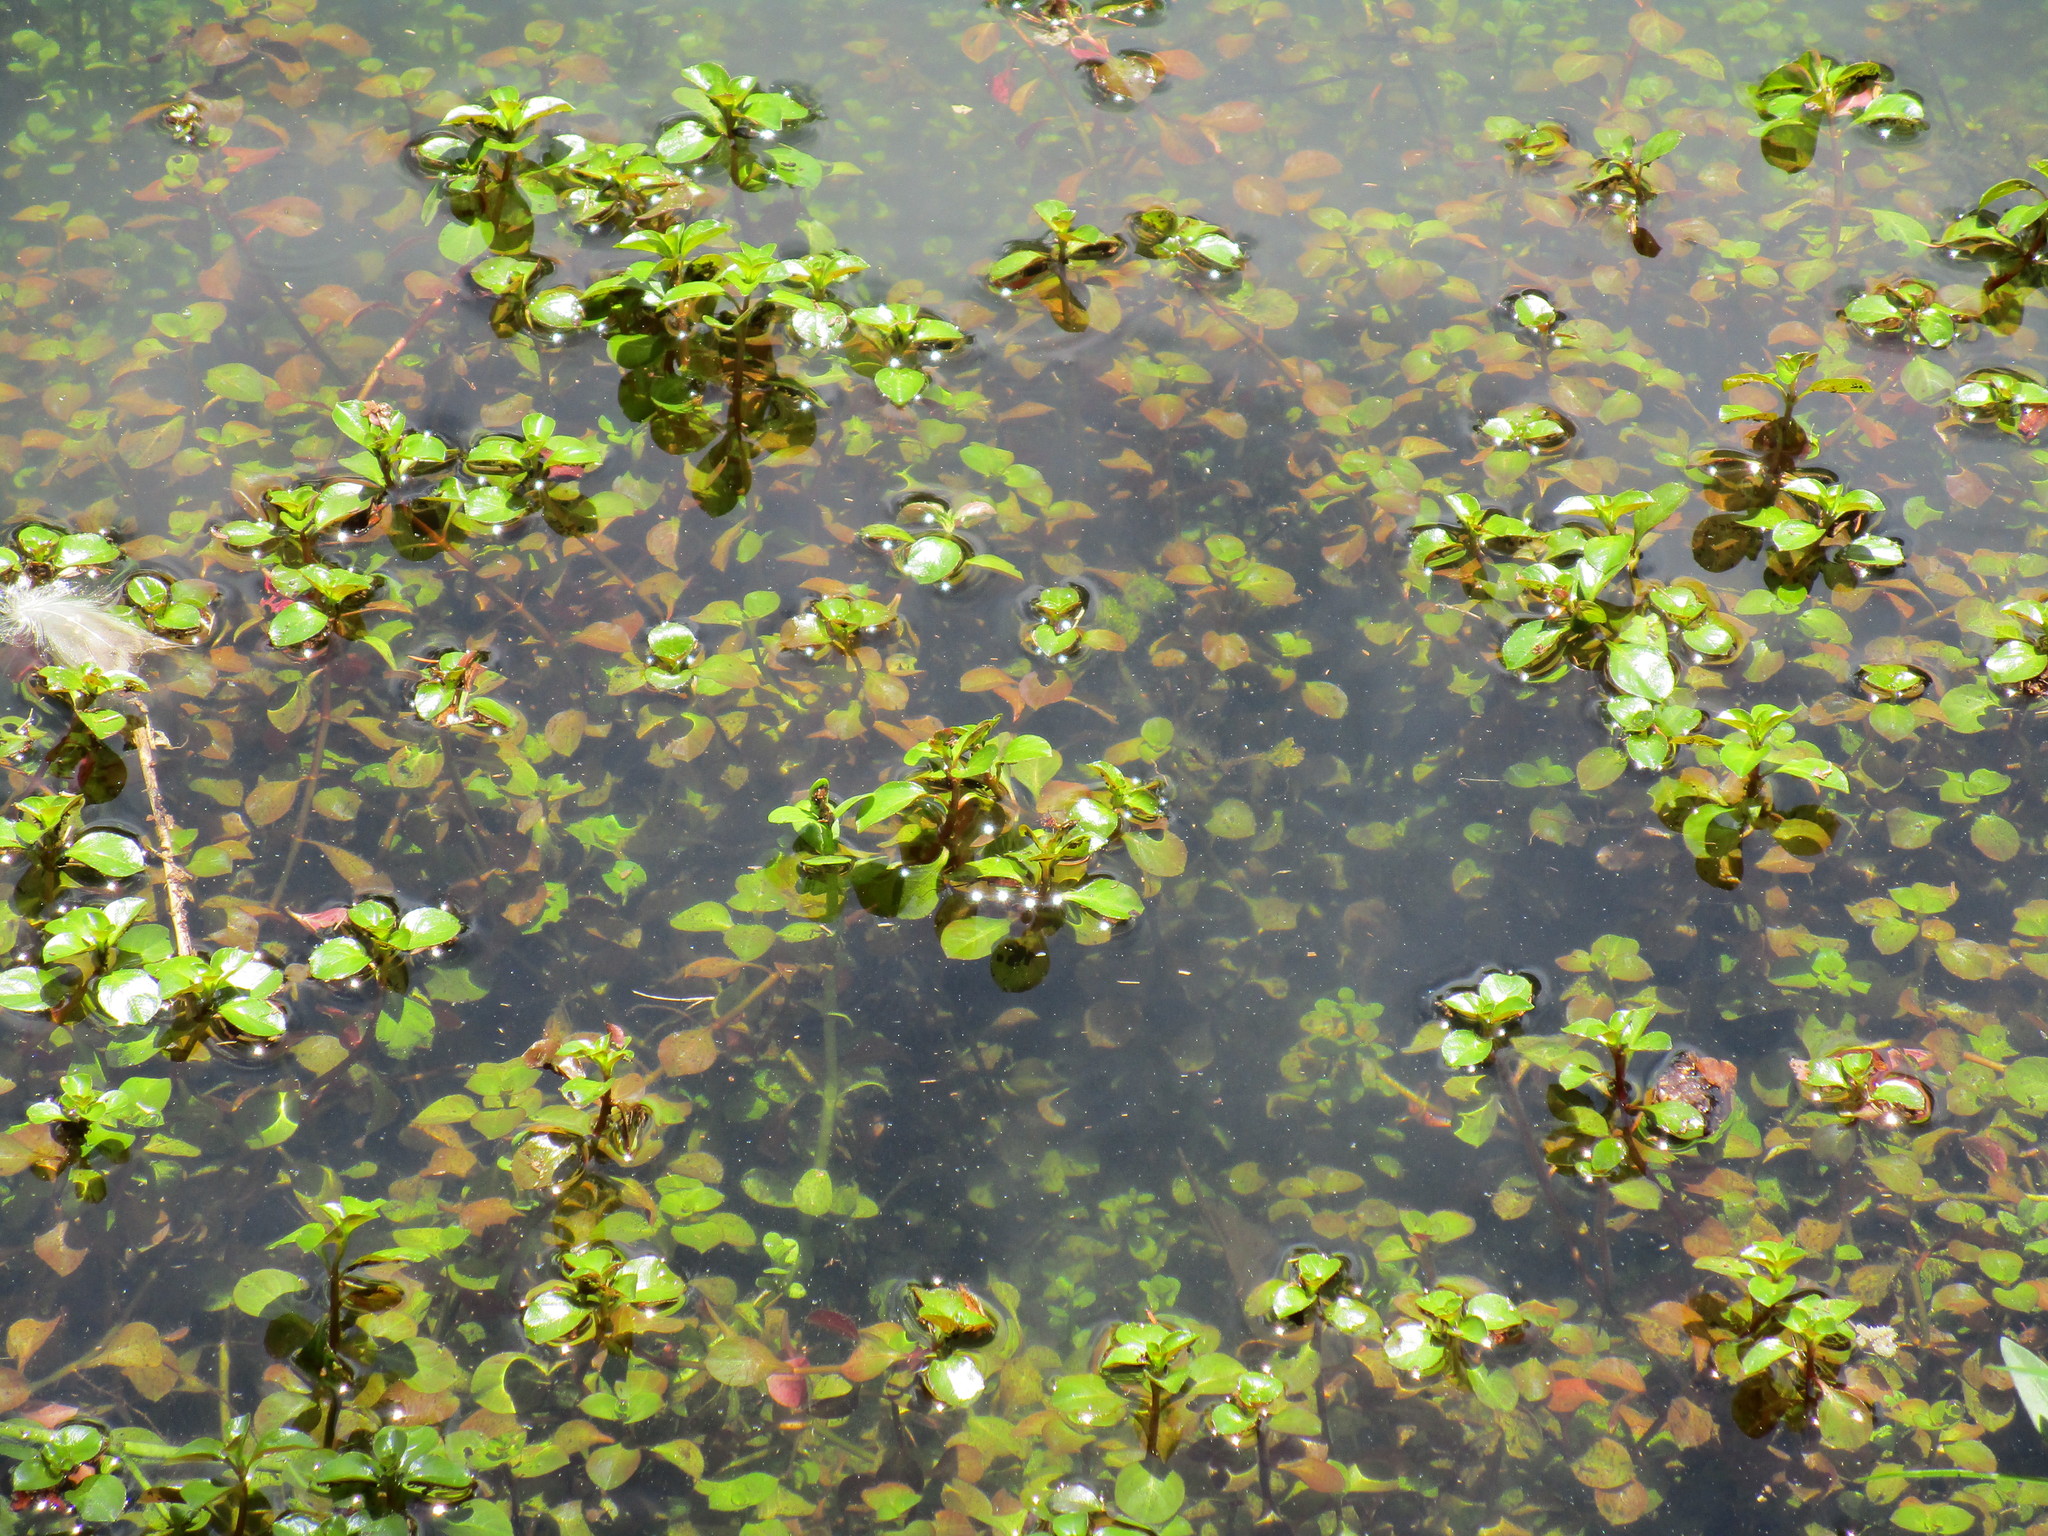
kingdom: Plantae
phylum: Tracheophyta
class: Magnoliopsida
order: Myrtales
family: Onagraceae
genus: Ludwigia
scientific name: Ludwigia repens
